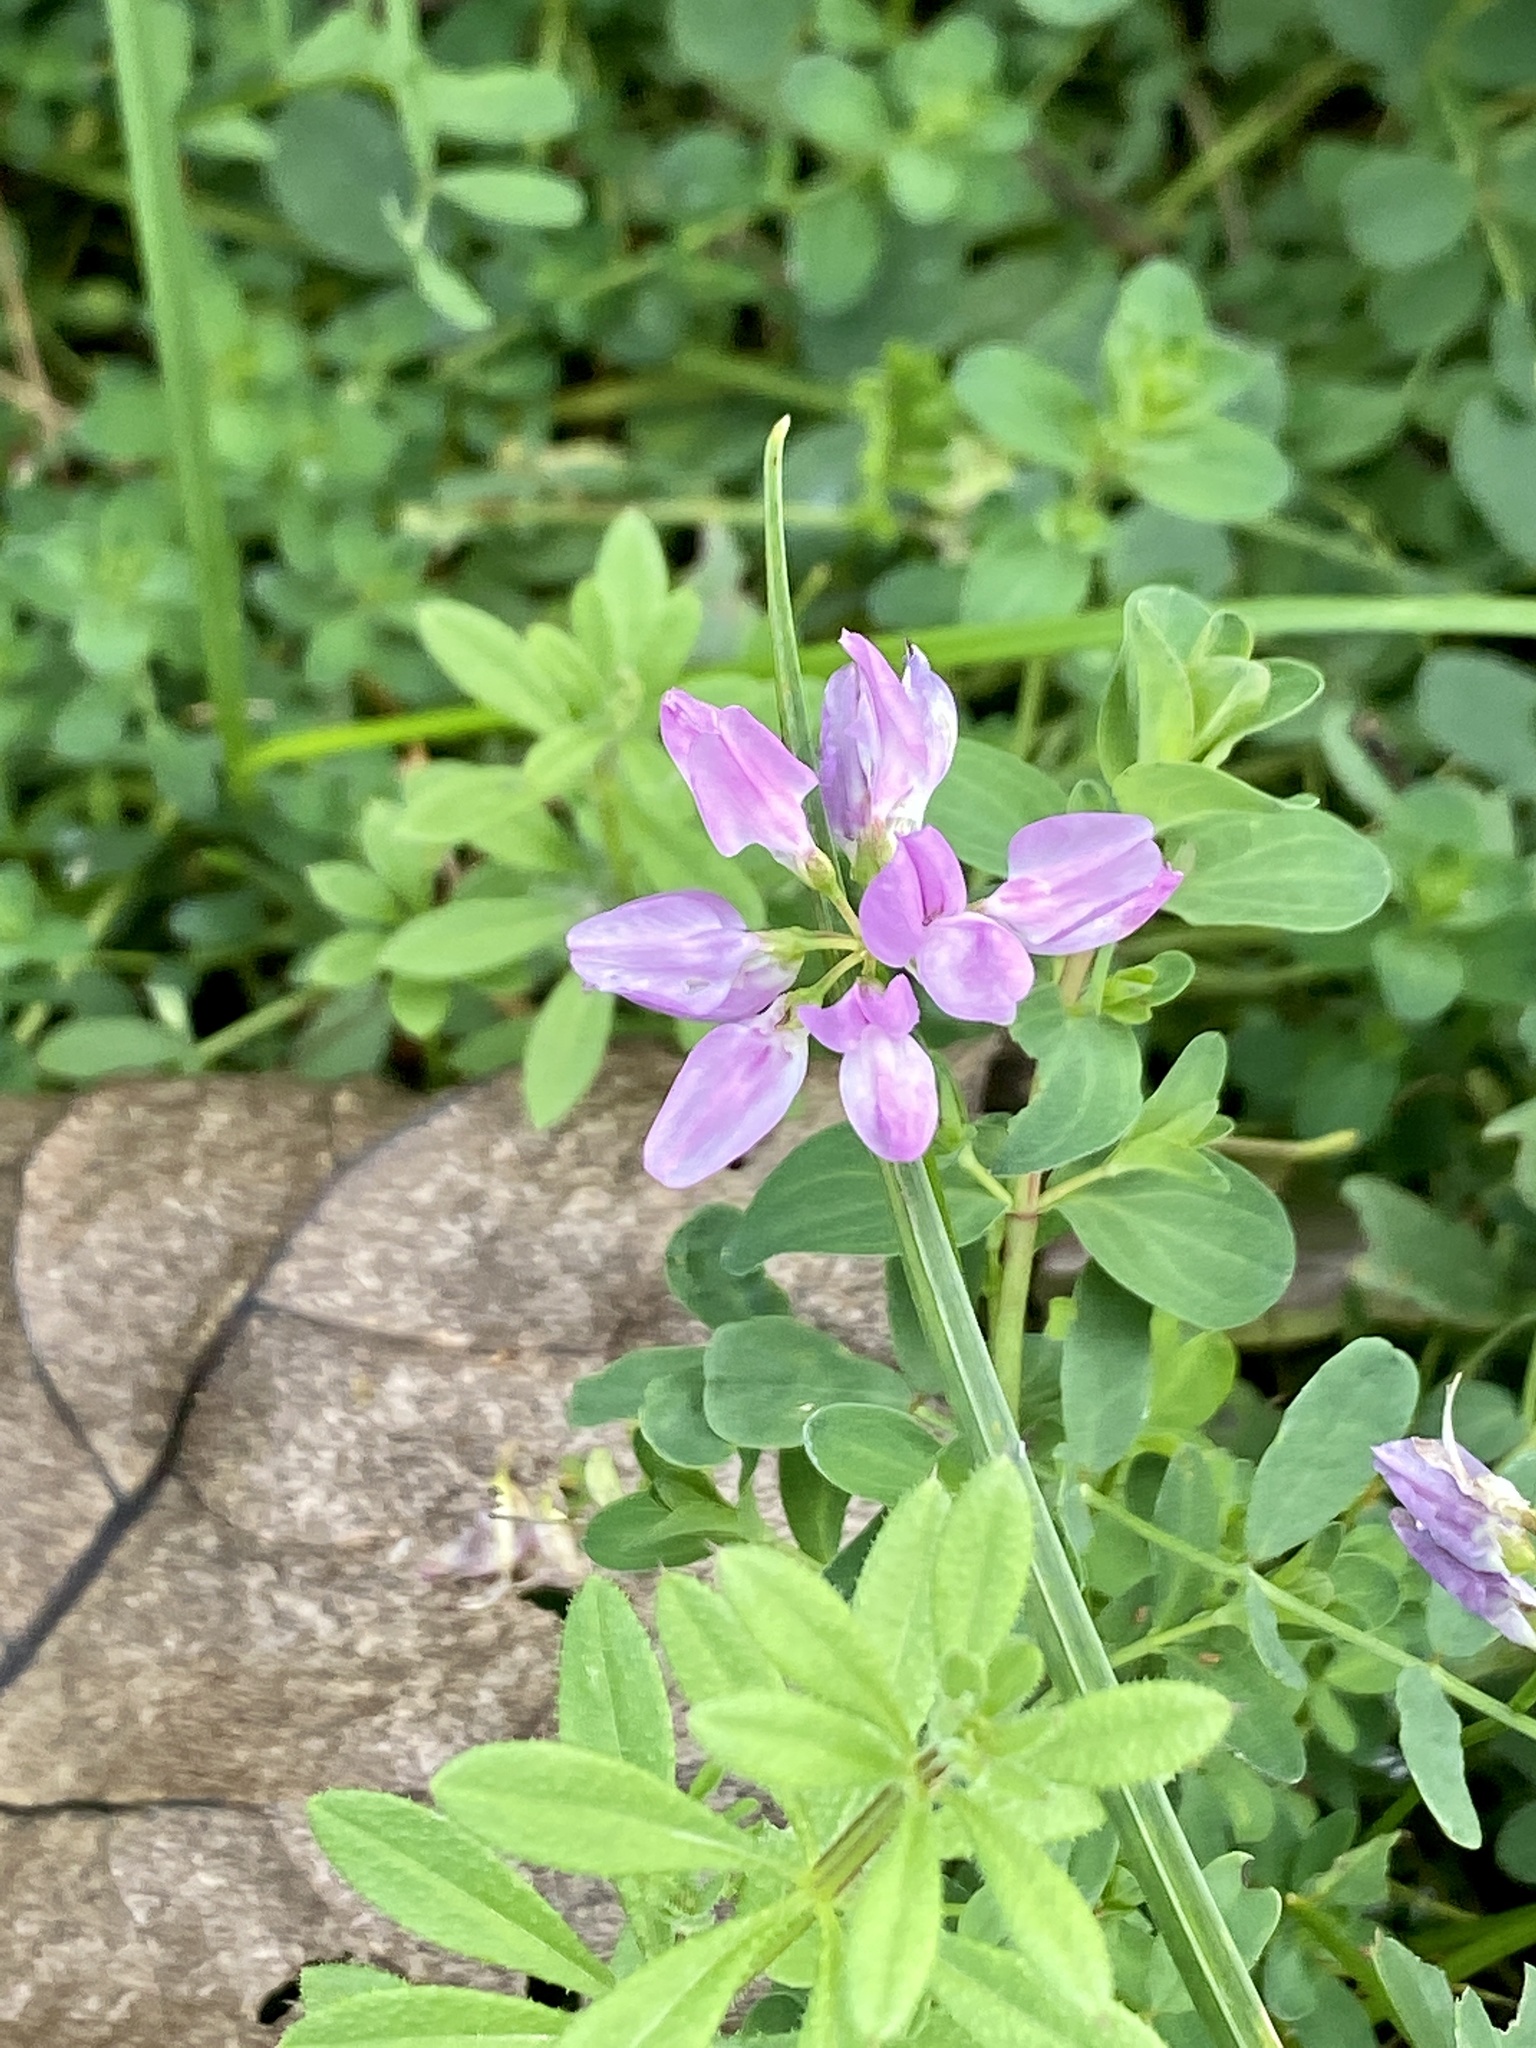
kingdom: Plantae
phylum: Tracheophyta
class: Magnoliopsida
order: Fabales
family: Fabaceae
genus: Coronilla
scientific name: Coronilla varia
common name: Crownvetch
